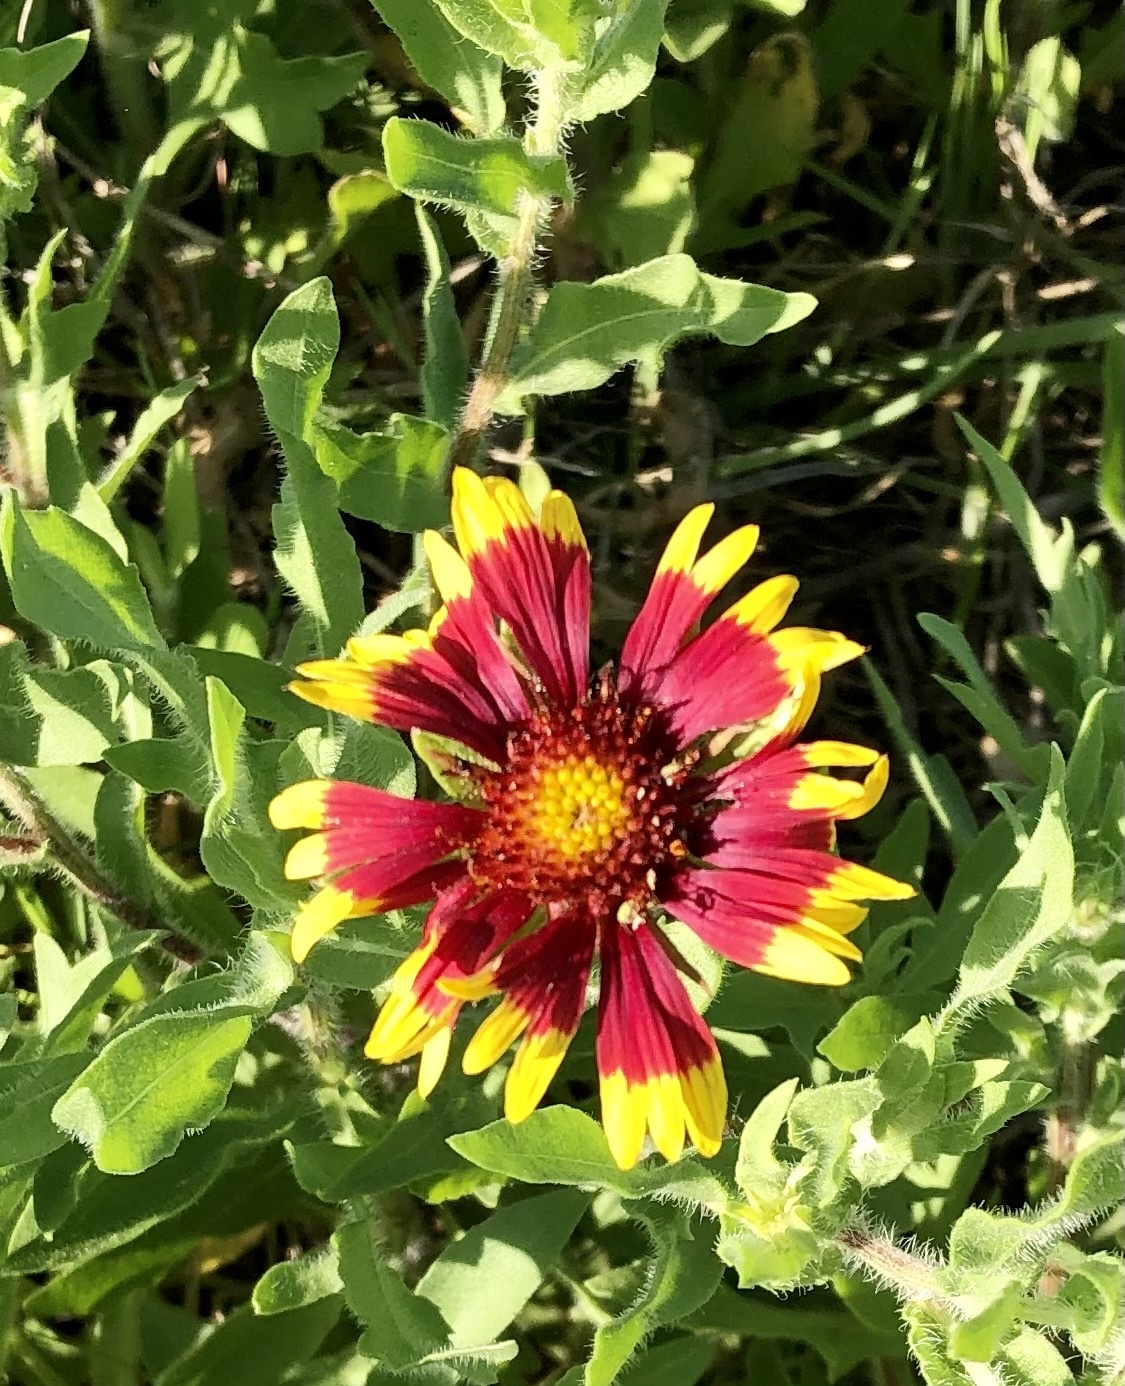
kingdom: Plantae
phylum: Tracheophyta
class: Magnoliopsida
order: Asterales
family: Asteraceae
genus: Gaillardia
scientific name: Gaillardia pulchella
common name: Firewheel
